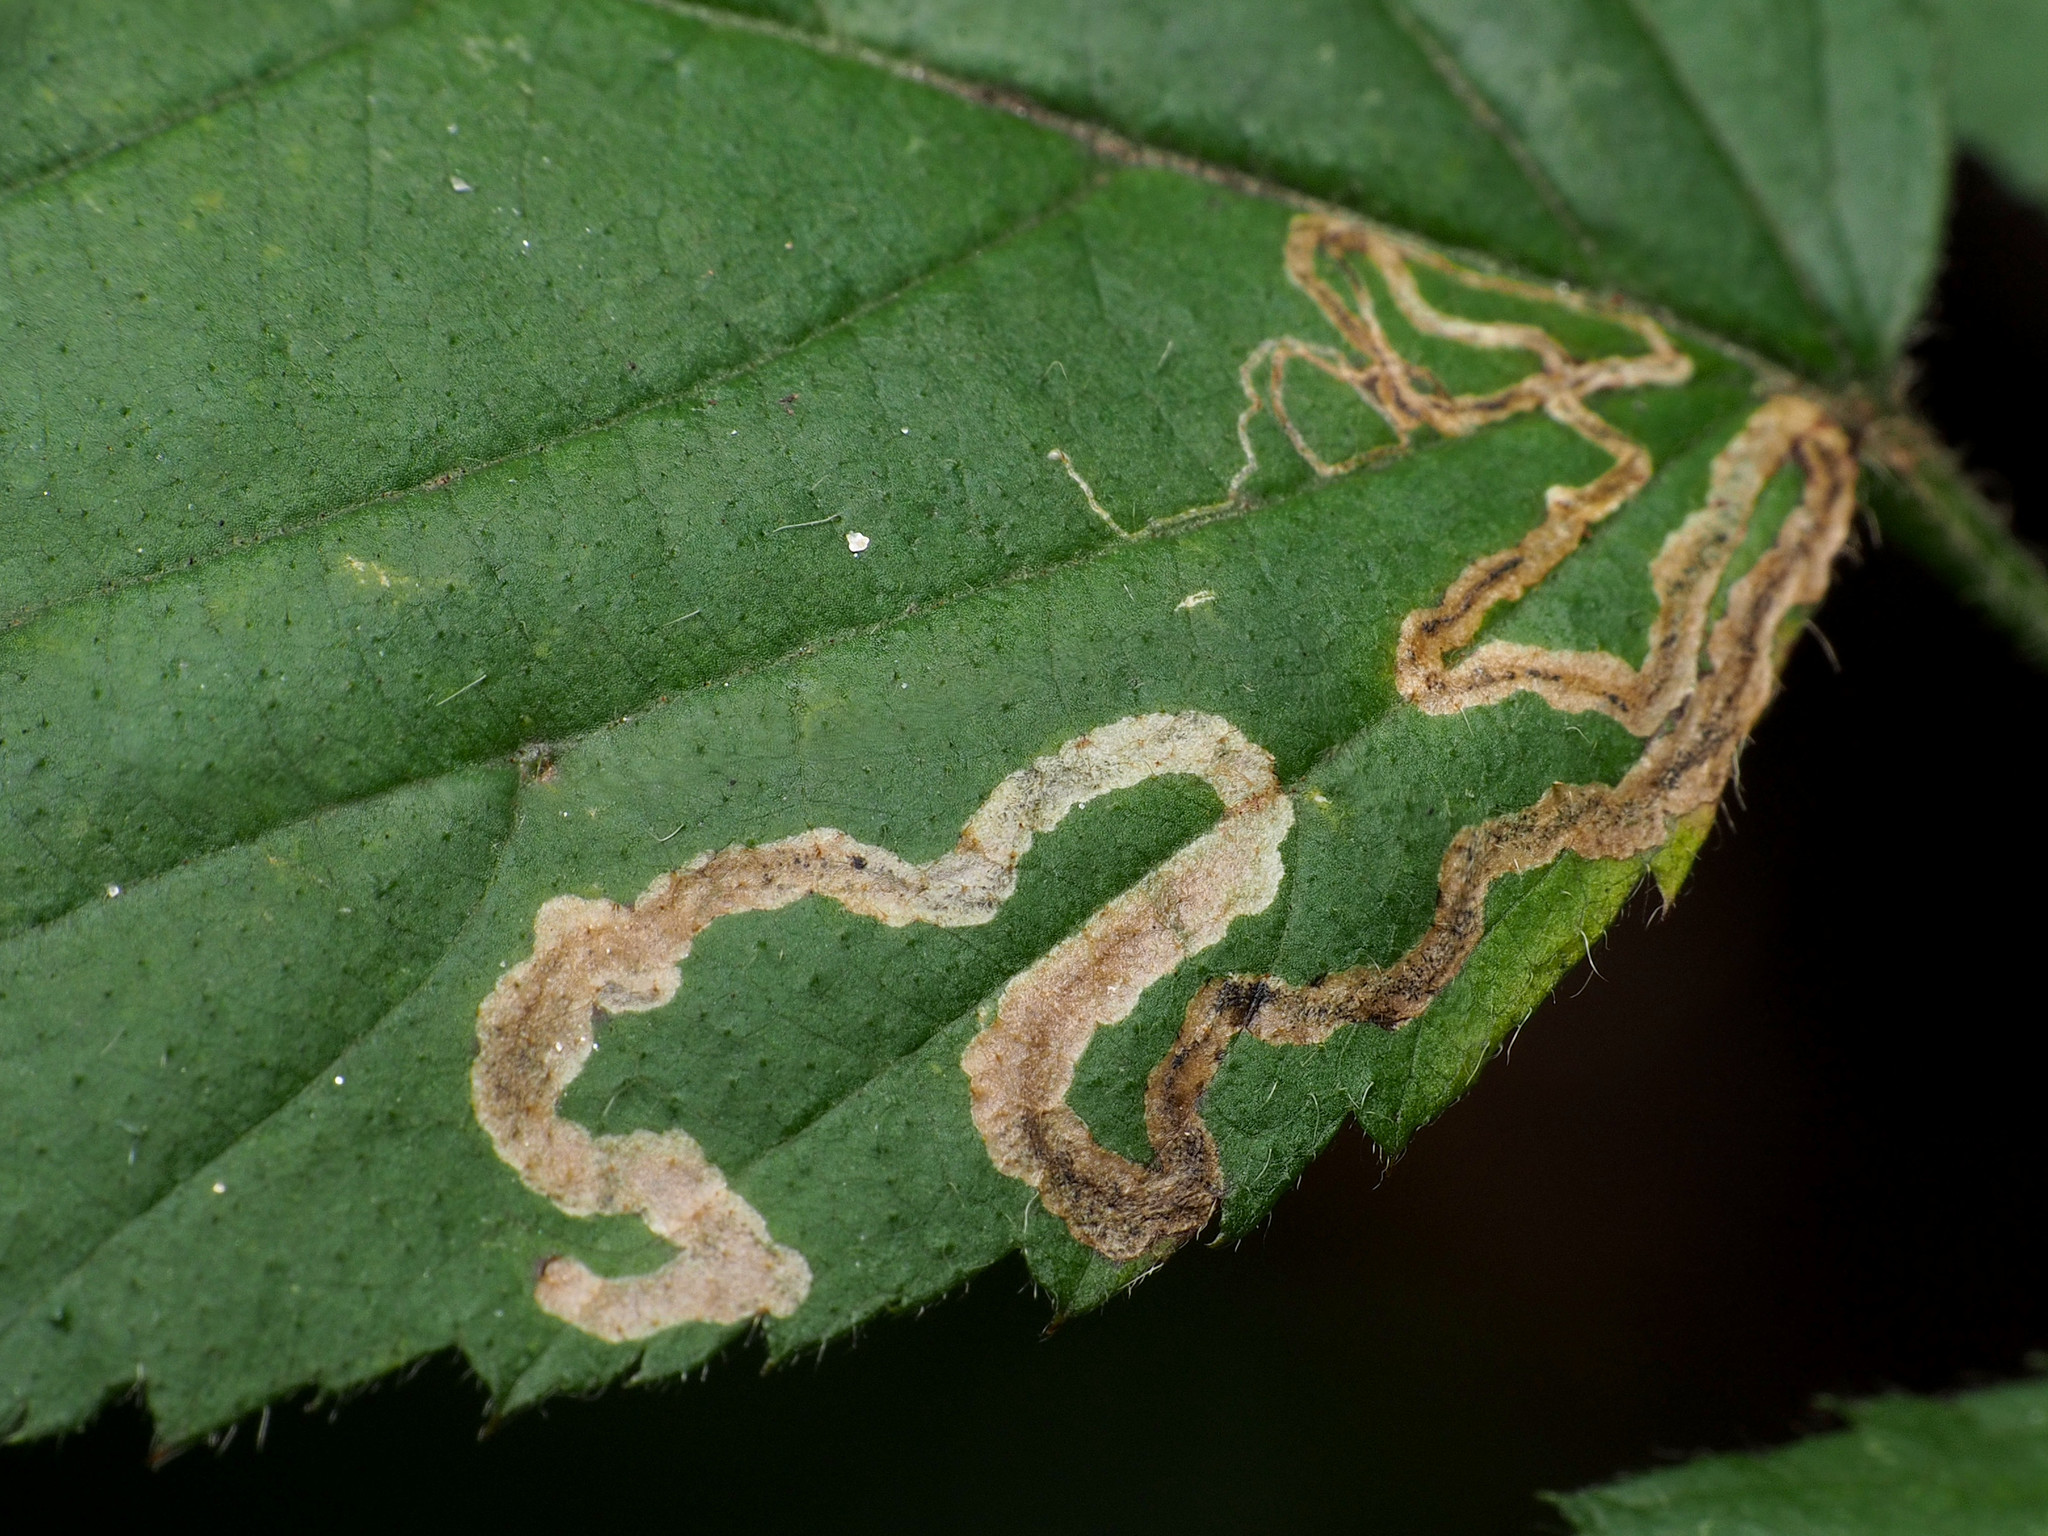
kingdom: Animalia
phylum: Arthropoda
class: Insecta
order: Lepidoptera
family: Nepticulidae
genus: Stigmella
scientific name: Stigmella villosella
